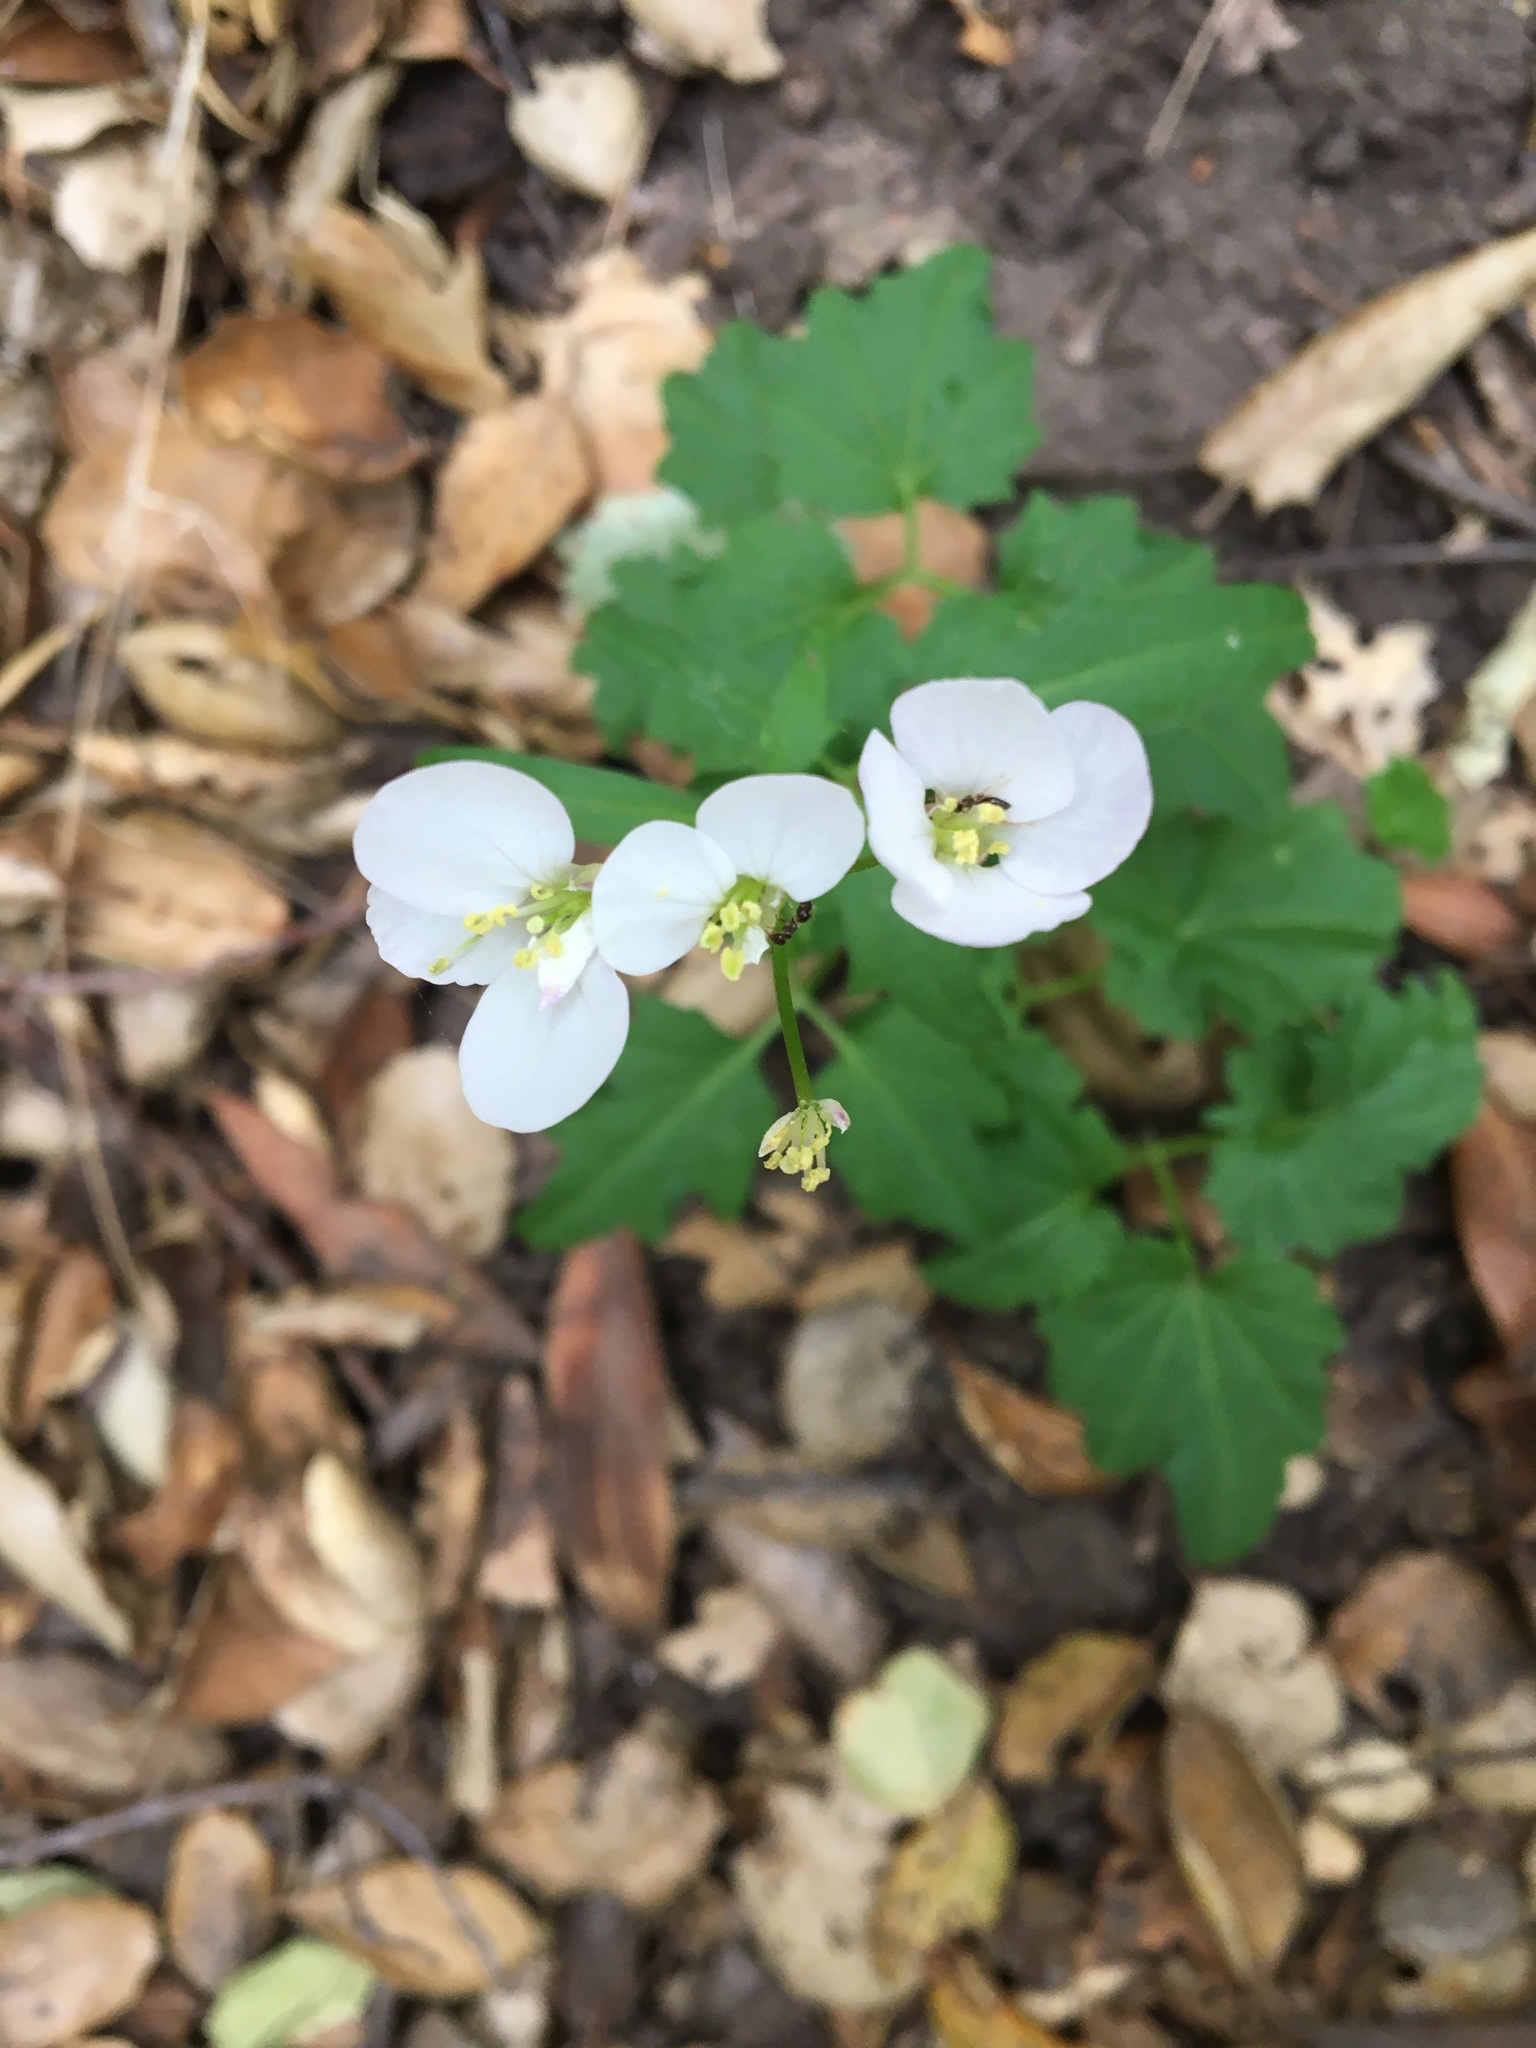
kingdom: Plantae
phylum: Tracheophyta
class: Magnoliopsida
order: Brassicales
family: Brassicaceae
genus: Cardamine
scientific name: Cardamine californica
